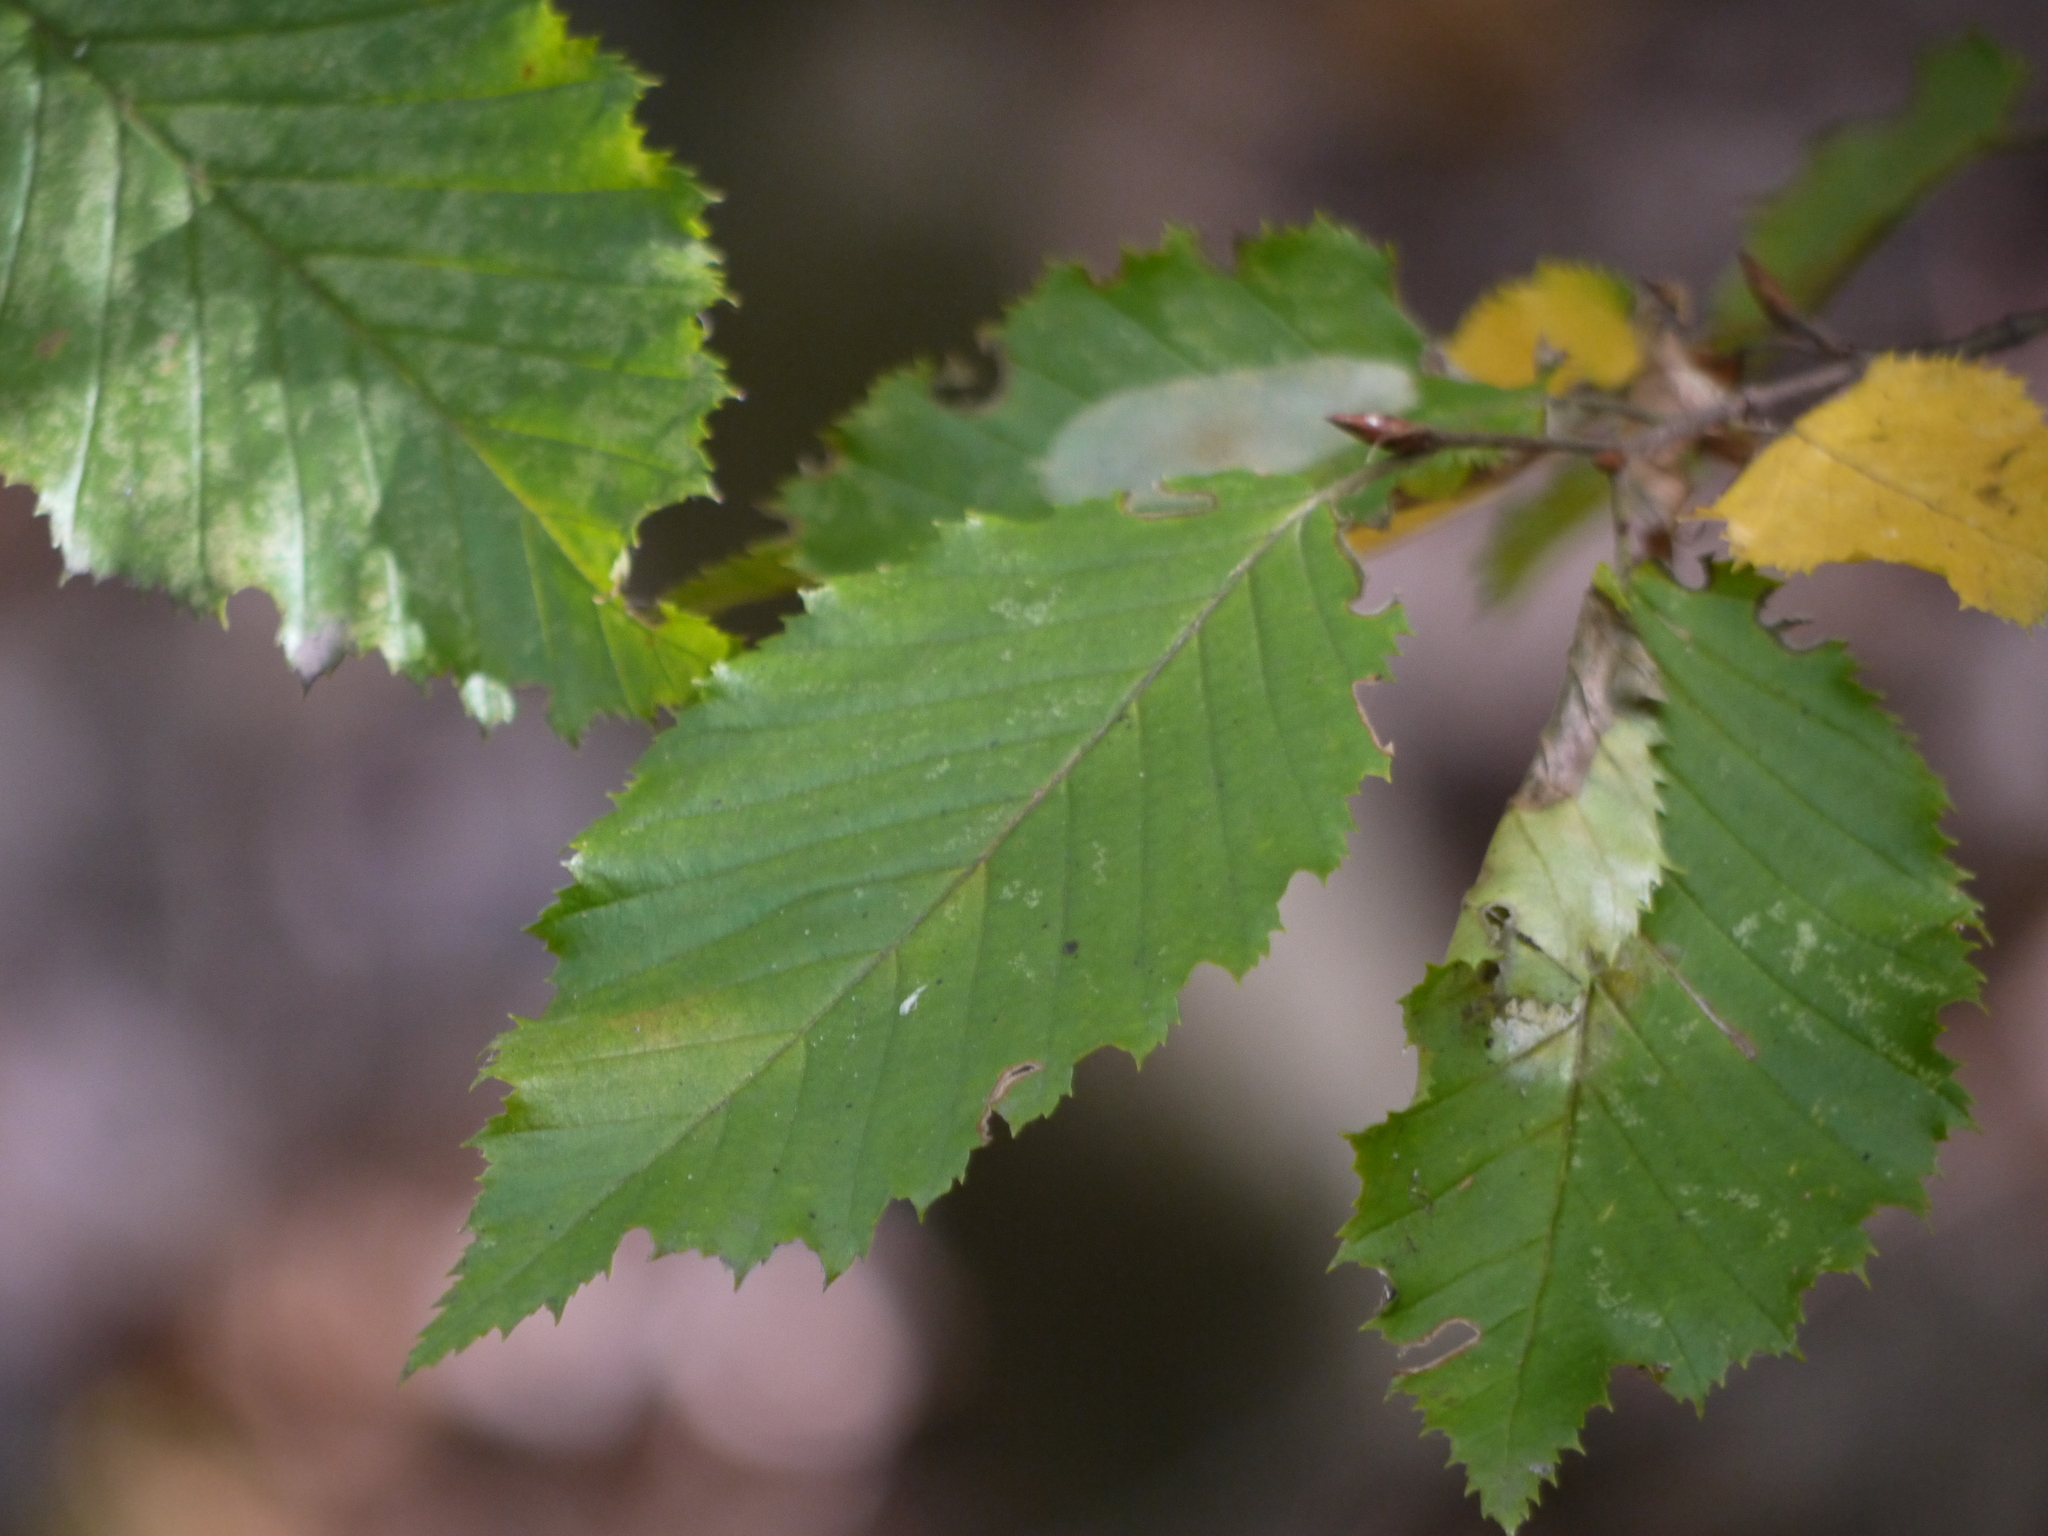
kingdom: Plantae
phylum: Tracheophyta
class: Magnoliopsida
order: Fagales
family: Betulaceae
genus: Carpinus
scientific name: Carpinus betulus
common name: Hornbeam
